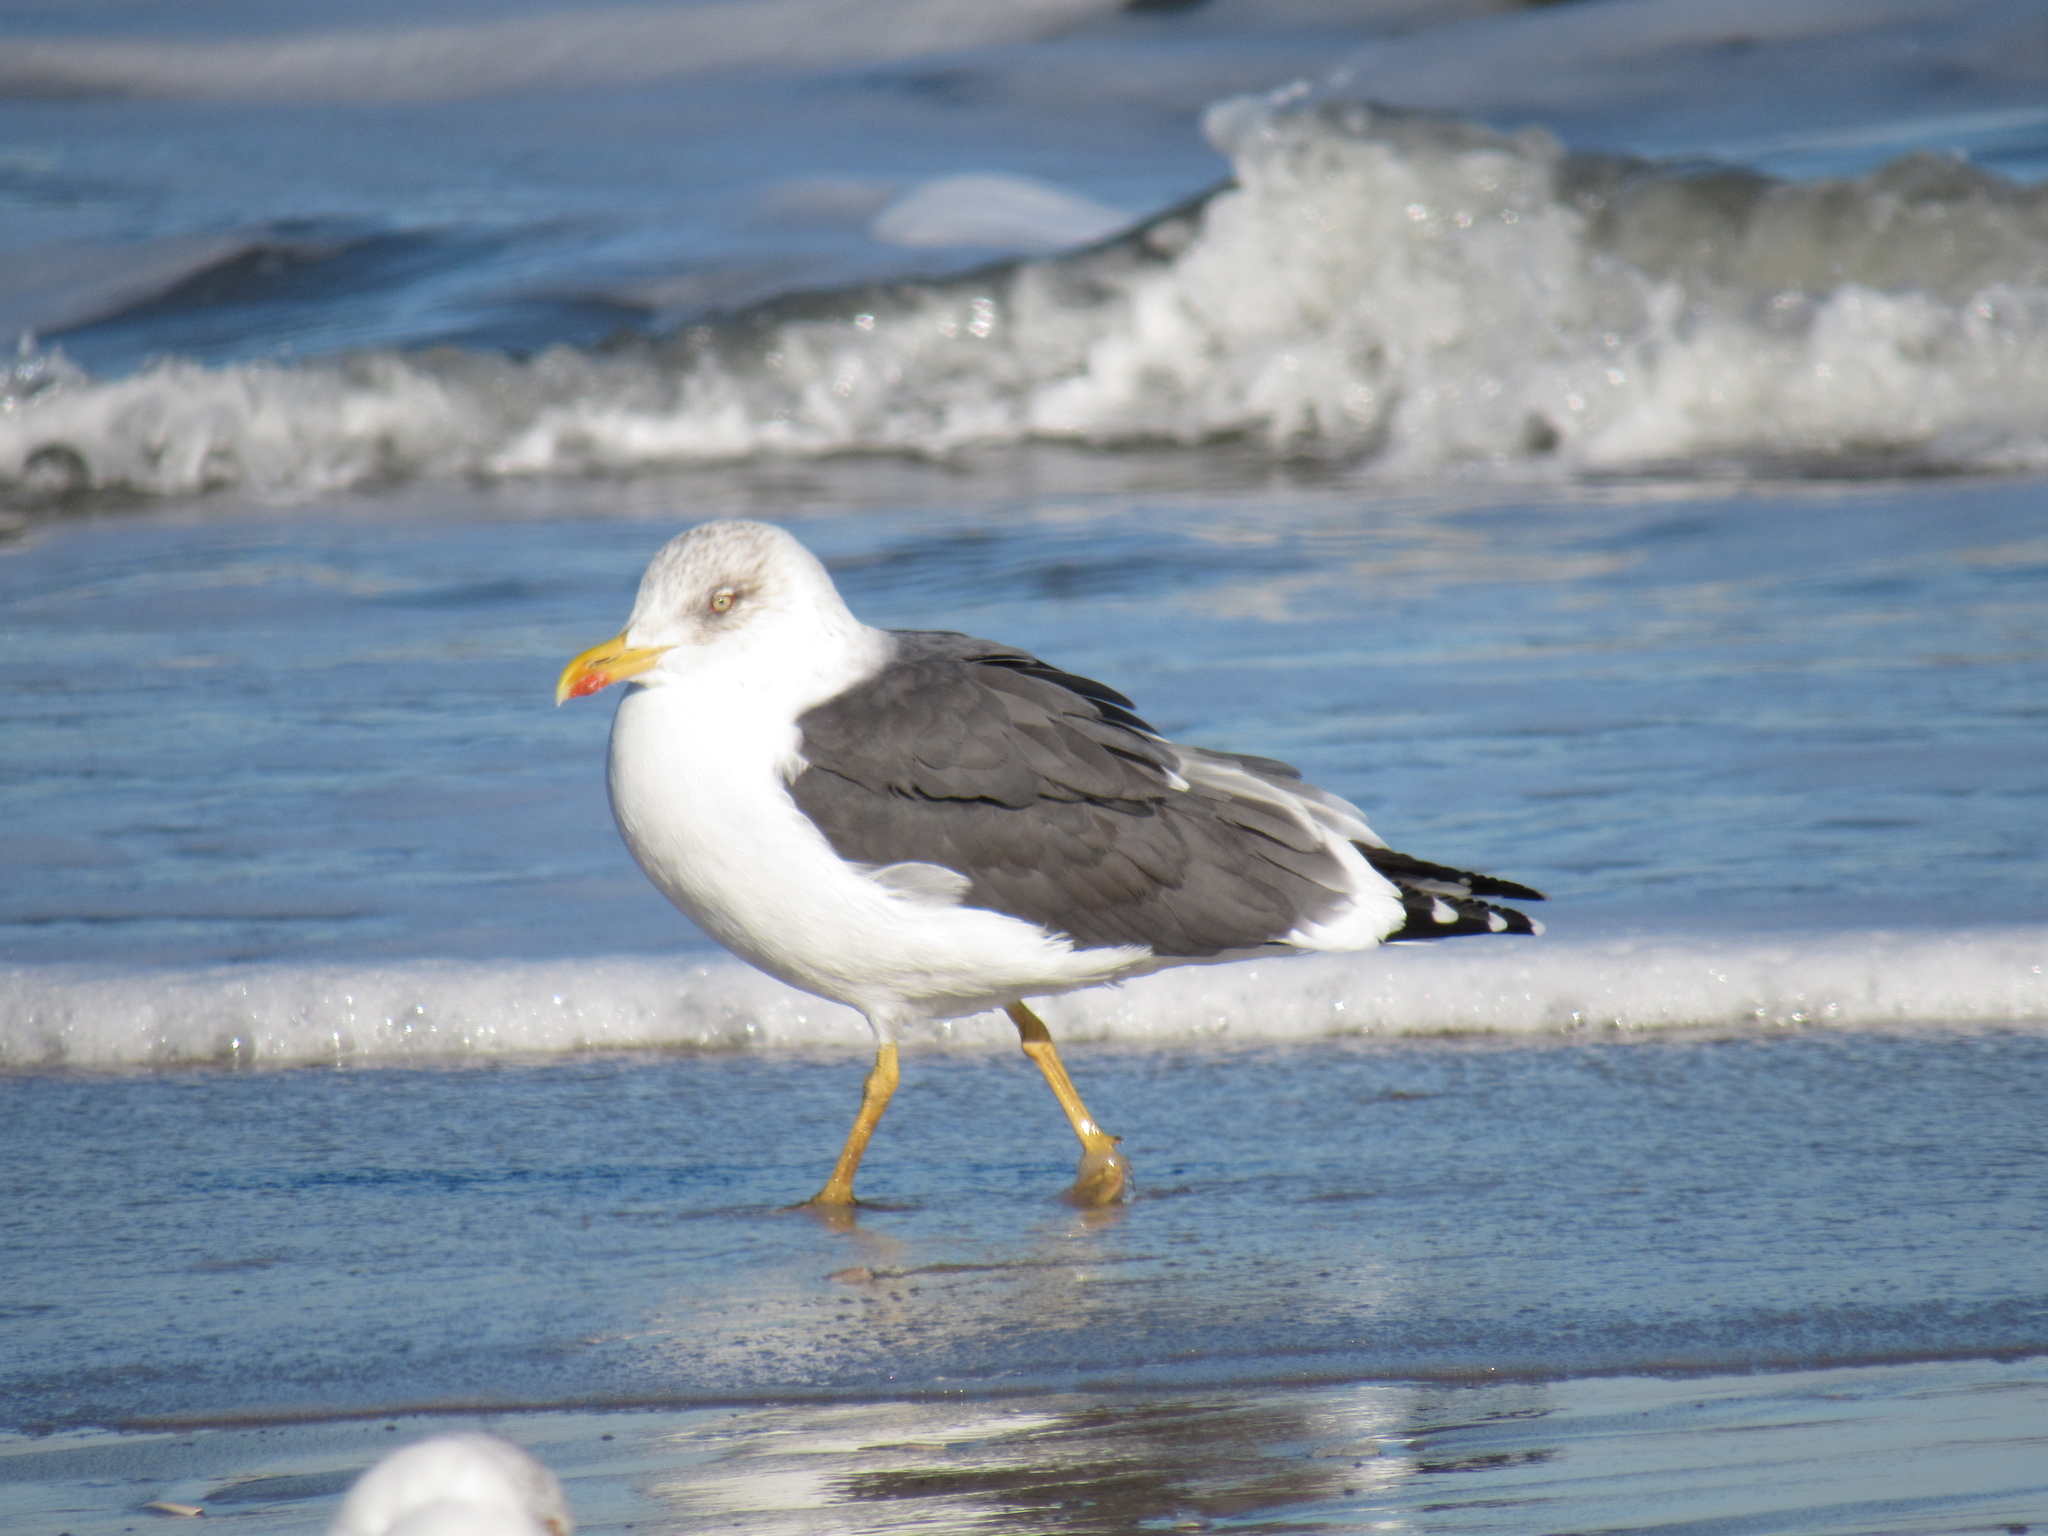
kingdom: Animalia
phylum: Chordata
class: Aves
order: Charadriiformes
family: Laridae
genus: Larus
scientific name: Larus fuscus
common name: Lesser black-backed gull
